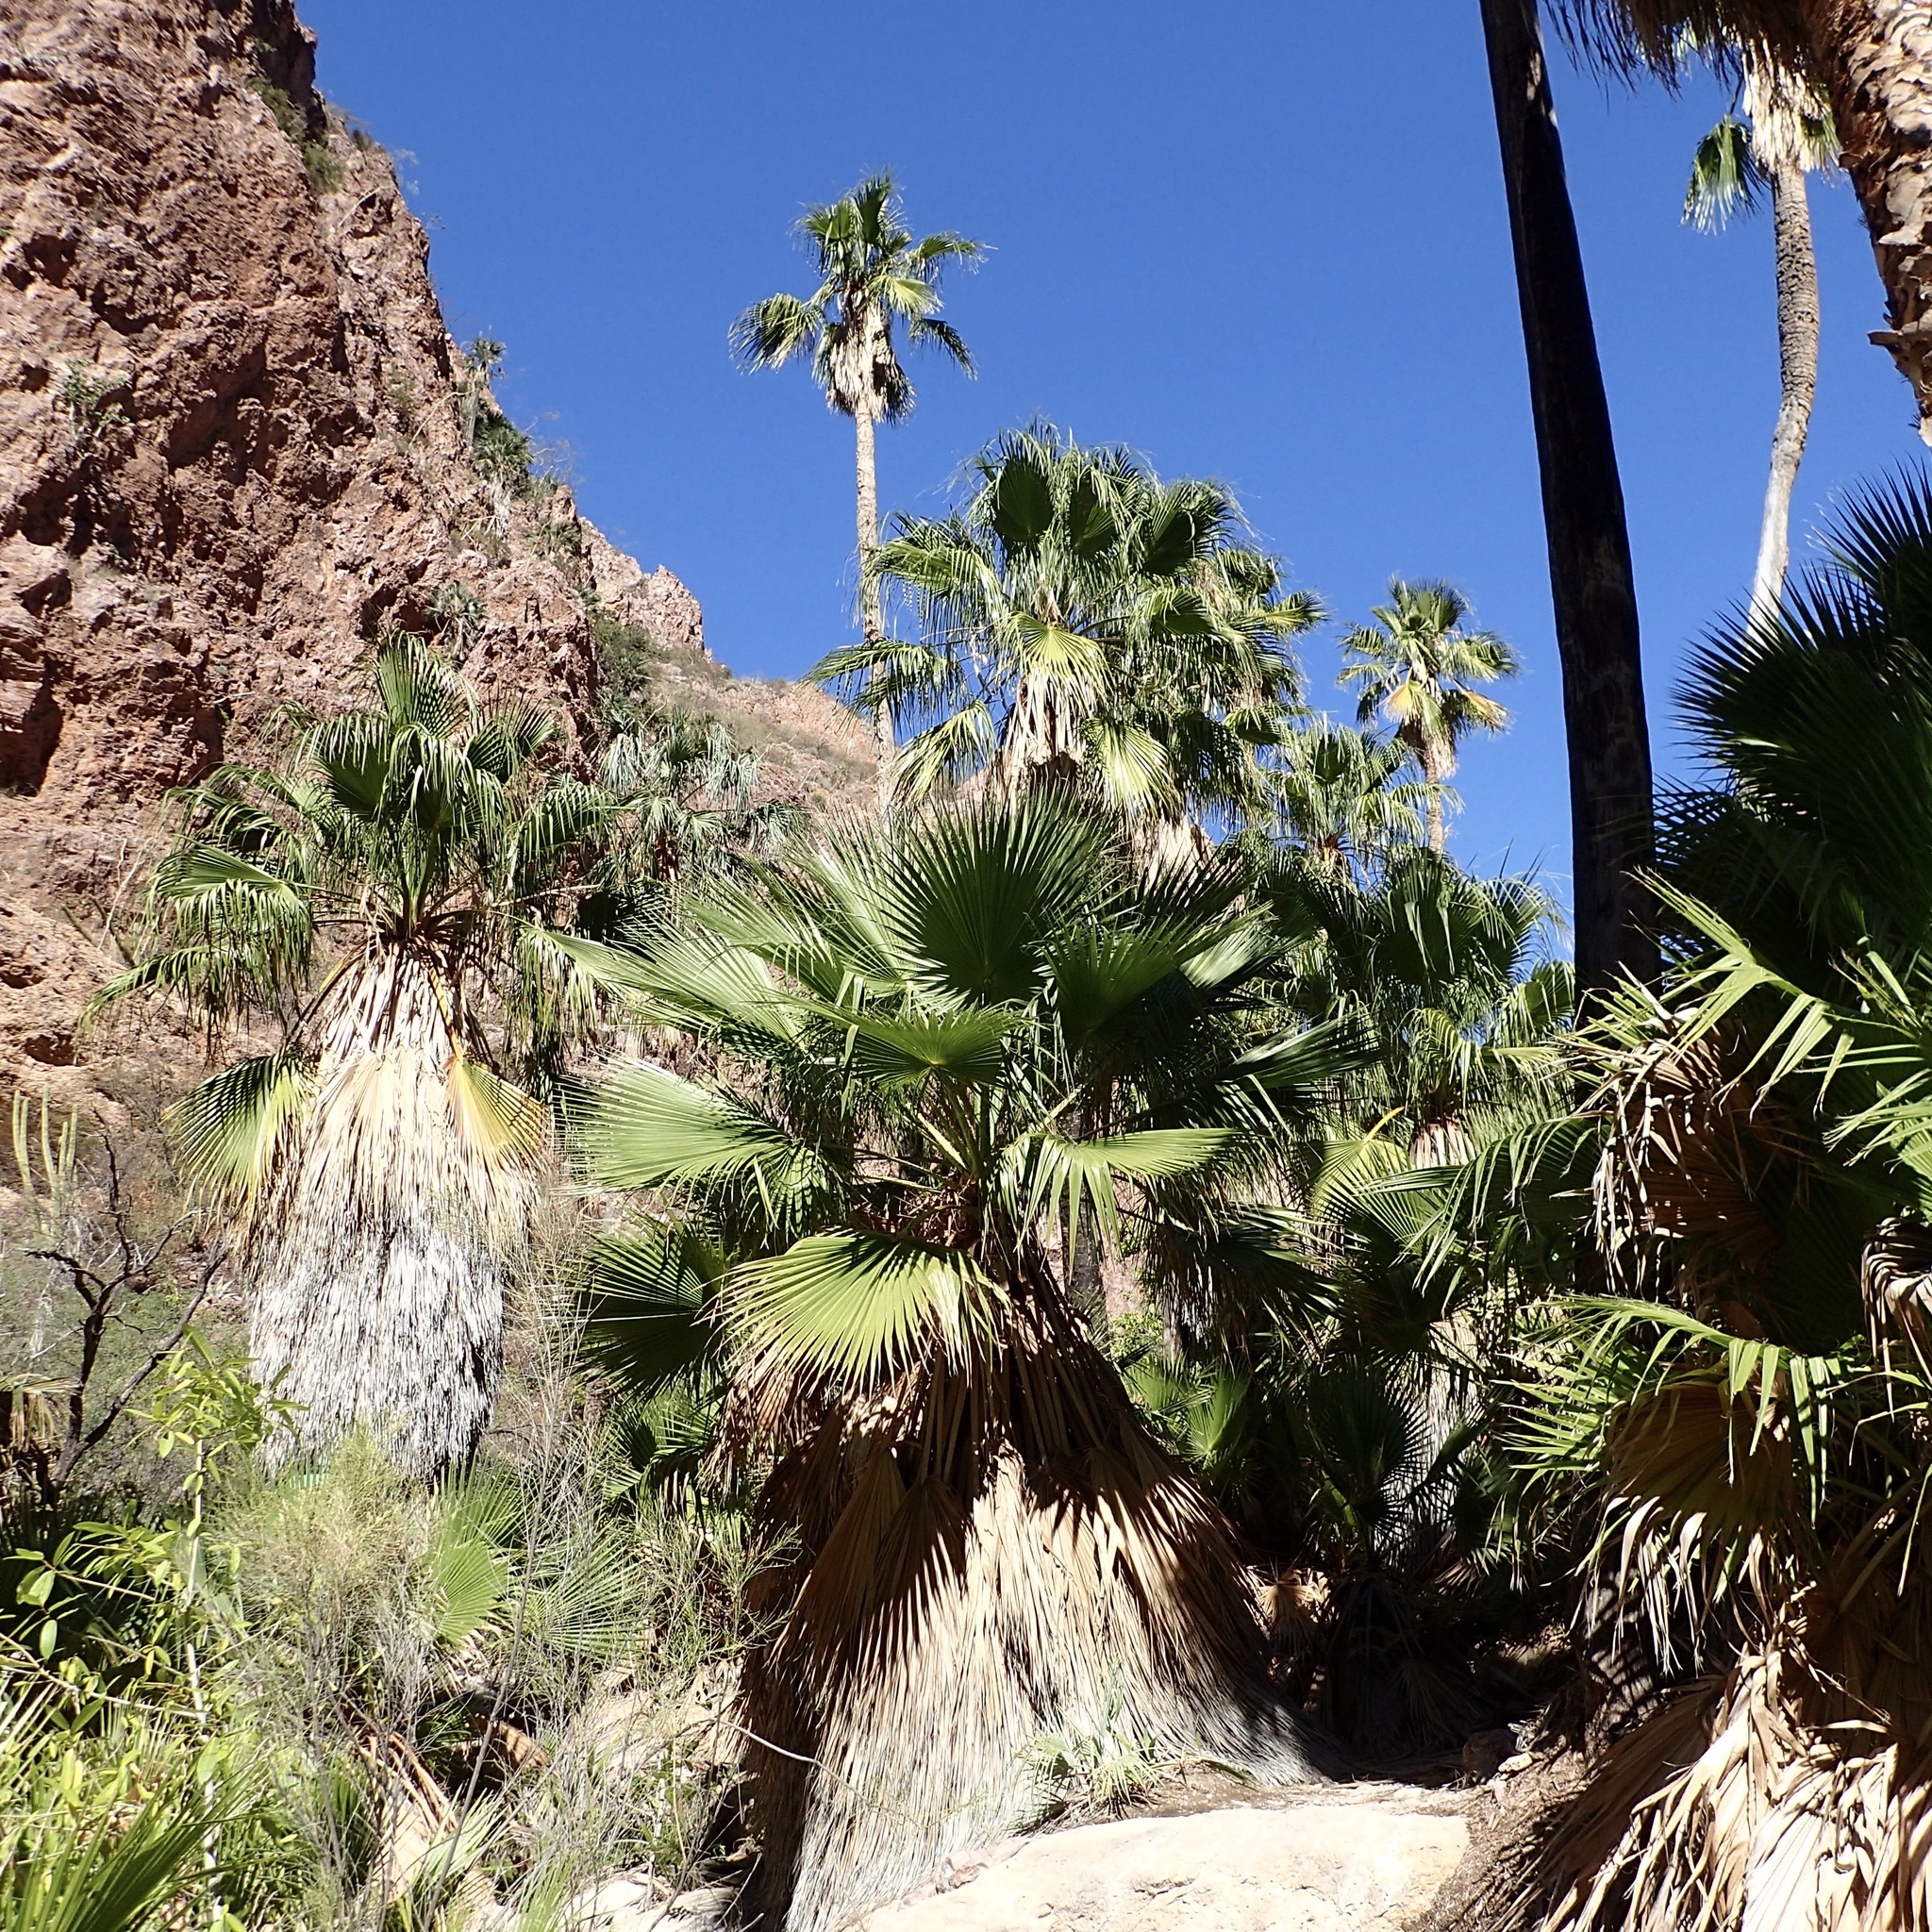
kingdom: Plantae
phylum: Tracheophyta
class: Liliopsida
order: Arecales
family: Arecaceae
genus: Washingtonia
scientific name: Washingtonia robusta
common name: Mexican fan palm
